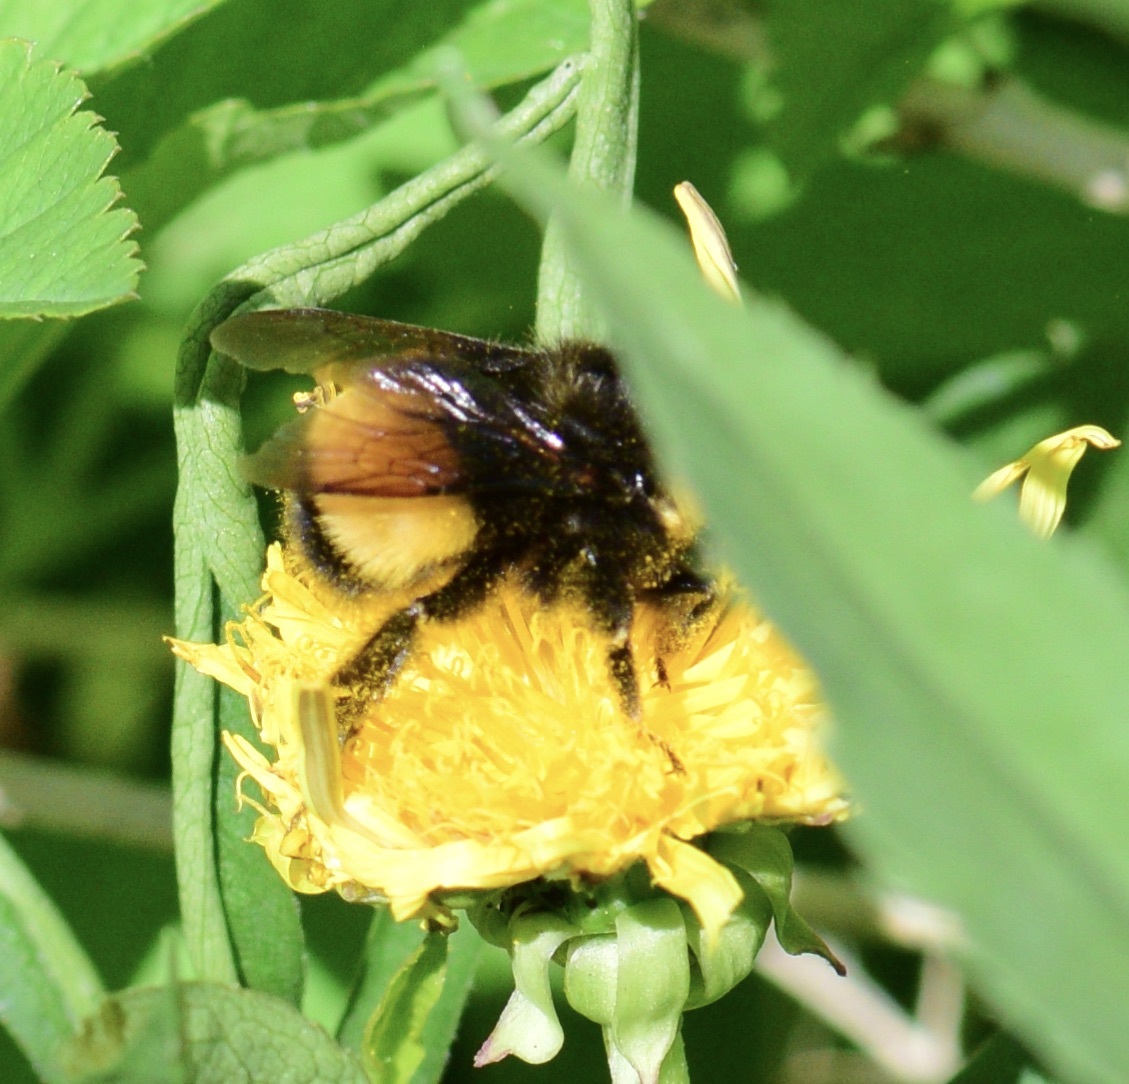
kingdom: Animalia
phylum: Arthropoda
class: Insecta
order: Hymenoptera
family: Apidae
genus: Bombus
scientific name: Bombus terricola
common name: Yellow-banded bumble bee
